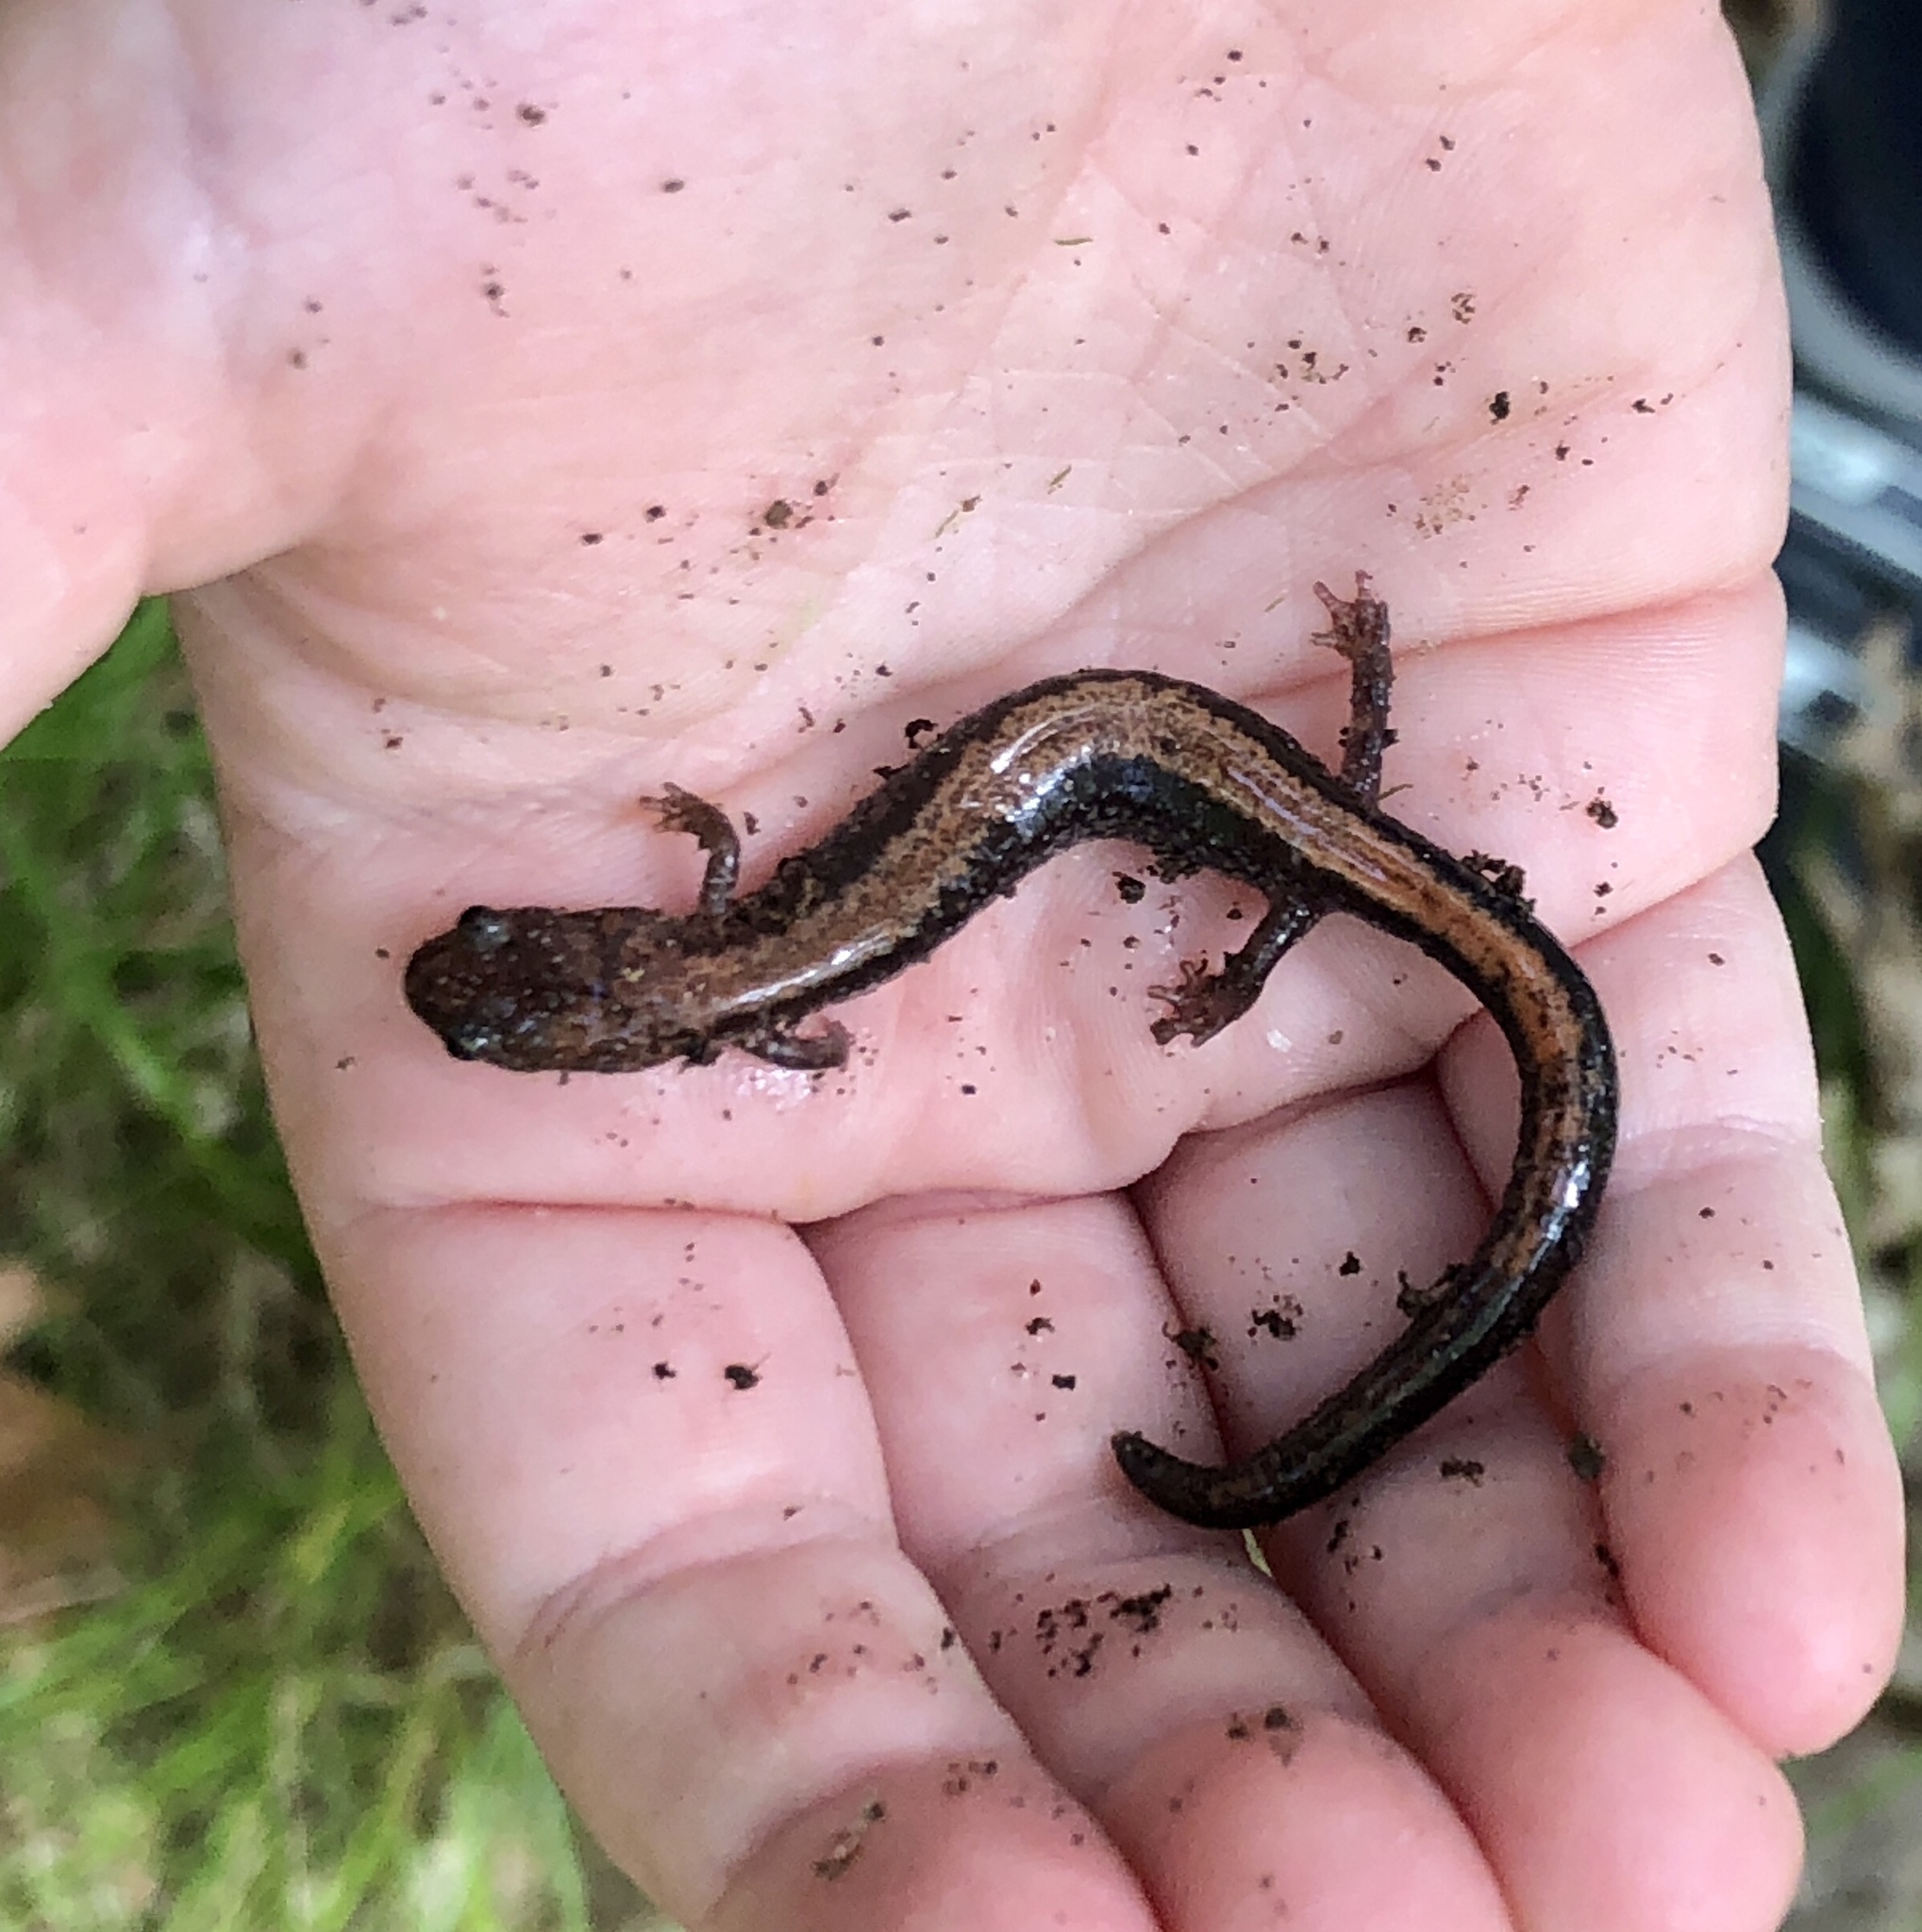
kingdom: Animalia
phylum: Chordata
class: Amphibia
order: Caudata
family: Plethodontidae
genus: Plethodon
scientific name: Plethodon cinereus
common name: Redback salamander
